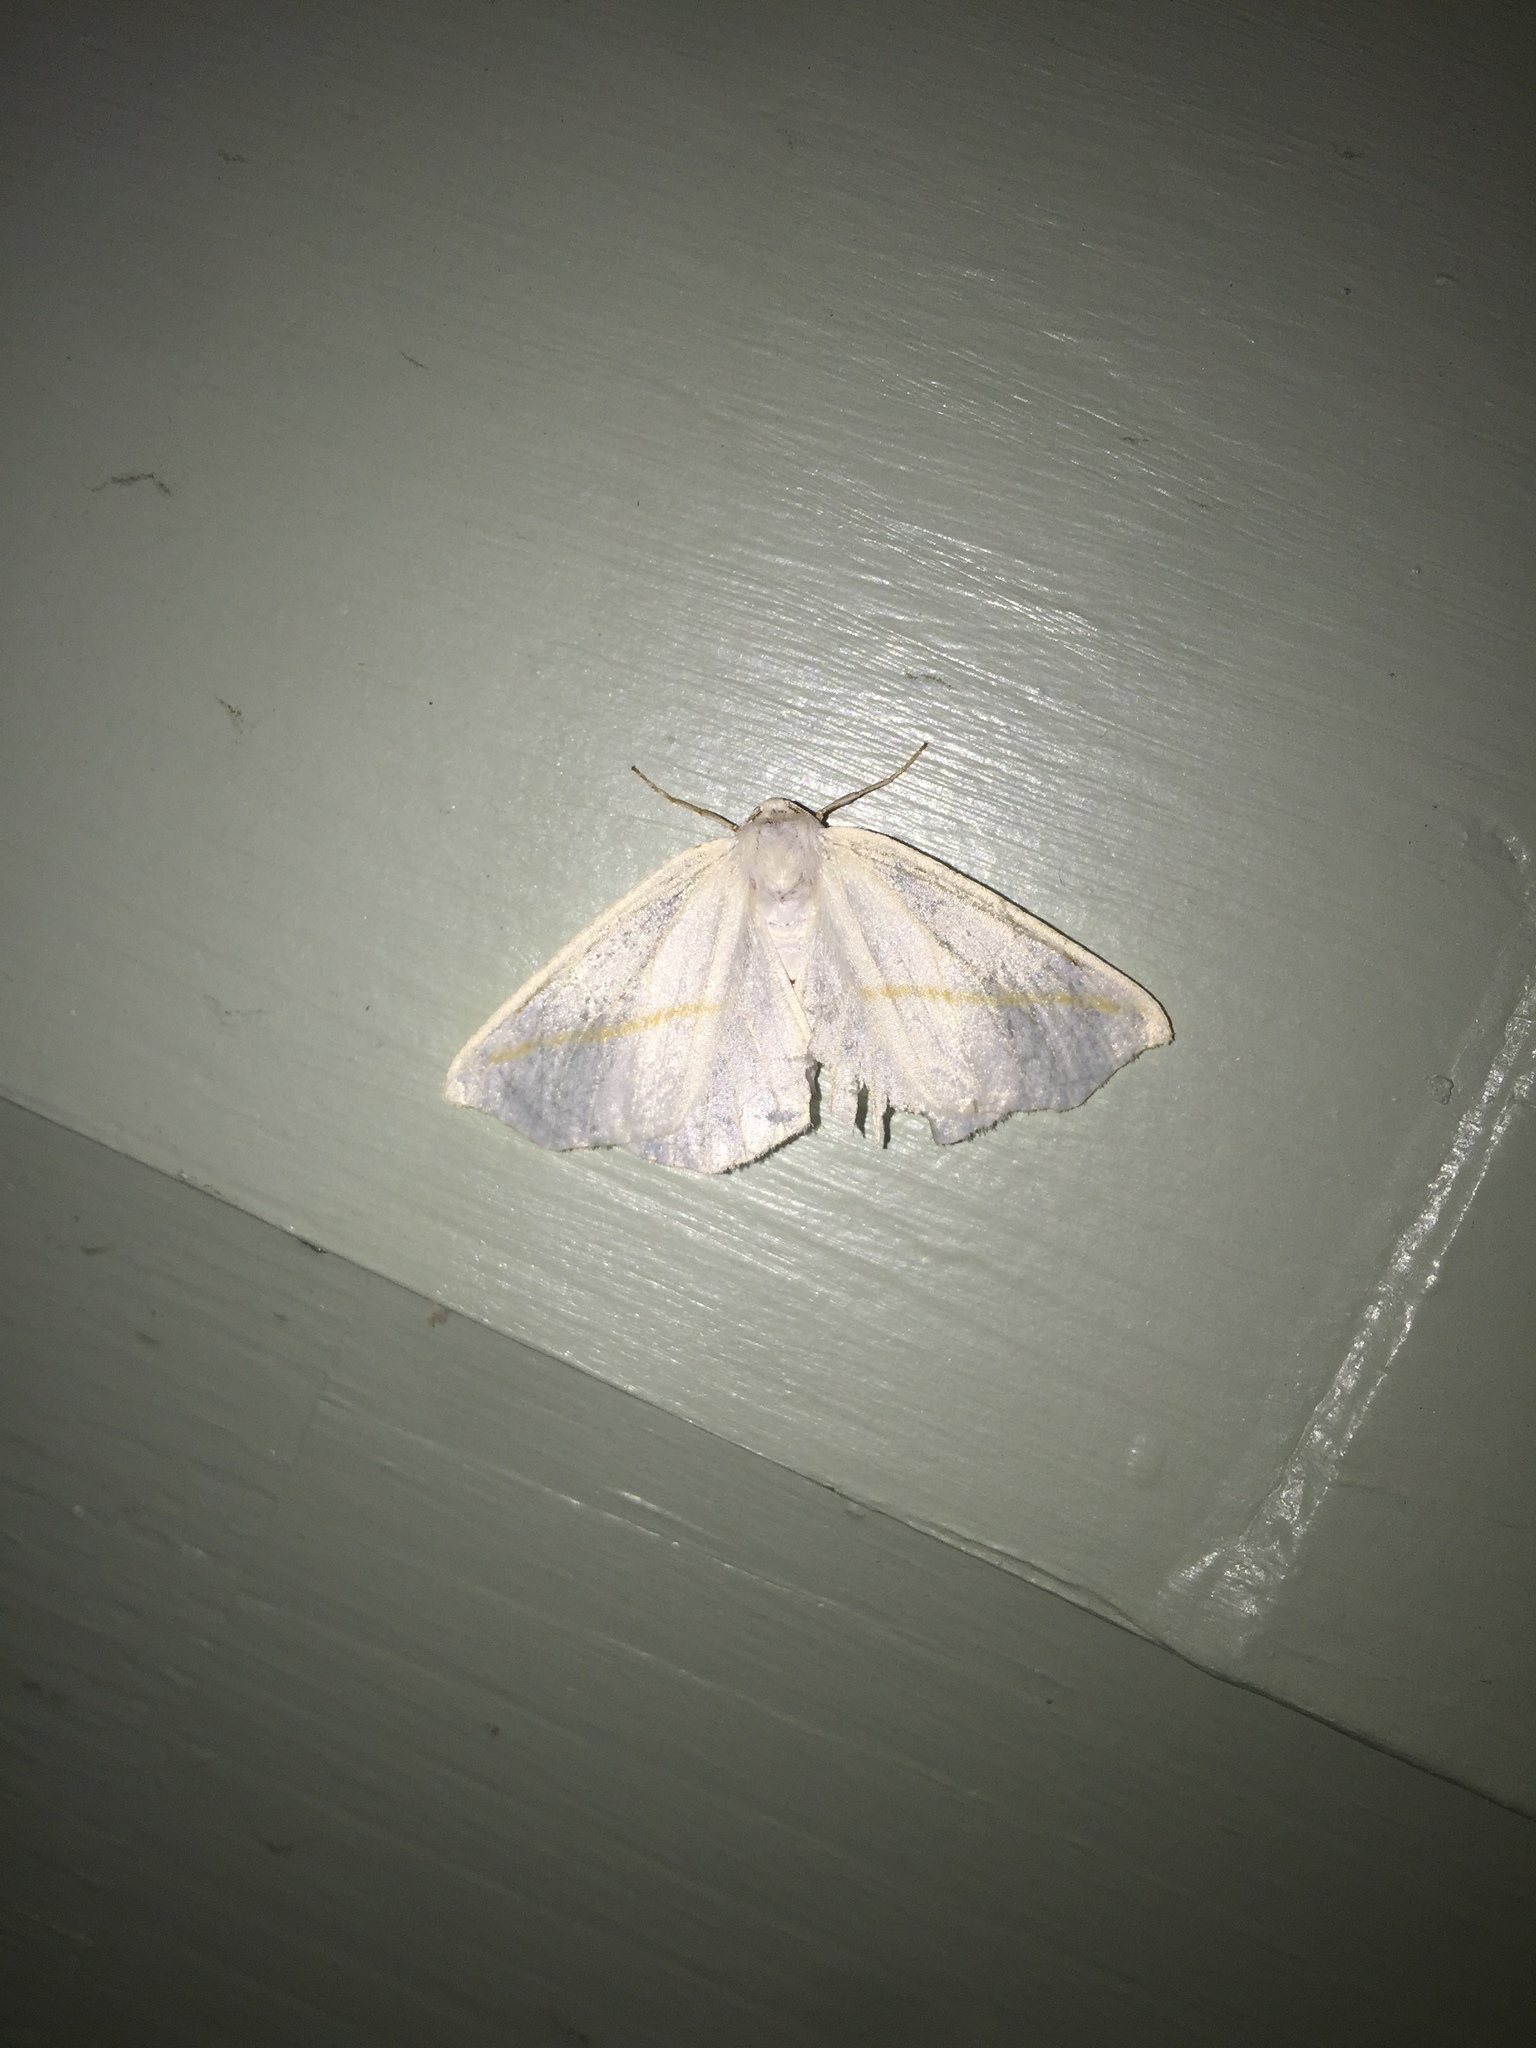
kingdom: Animalia
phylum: Arthropoda
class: Insecta
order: Lepidoptera
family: Geometridae
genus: Tetracis
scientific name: Tetracis cachexiata
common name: White slant-line
